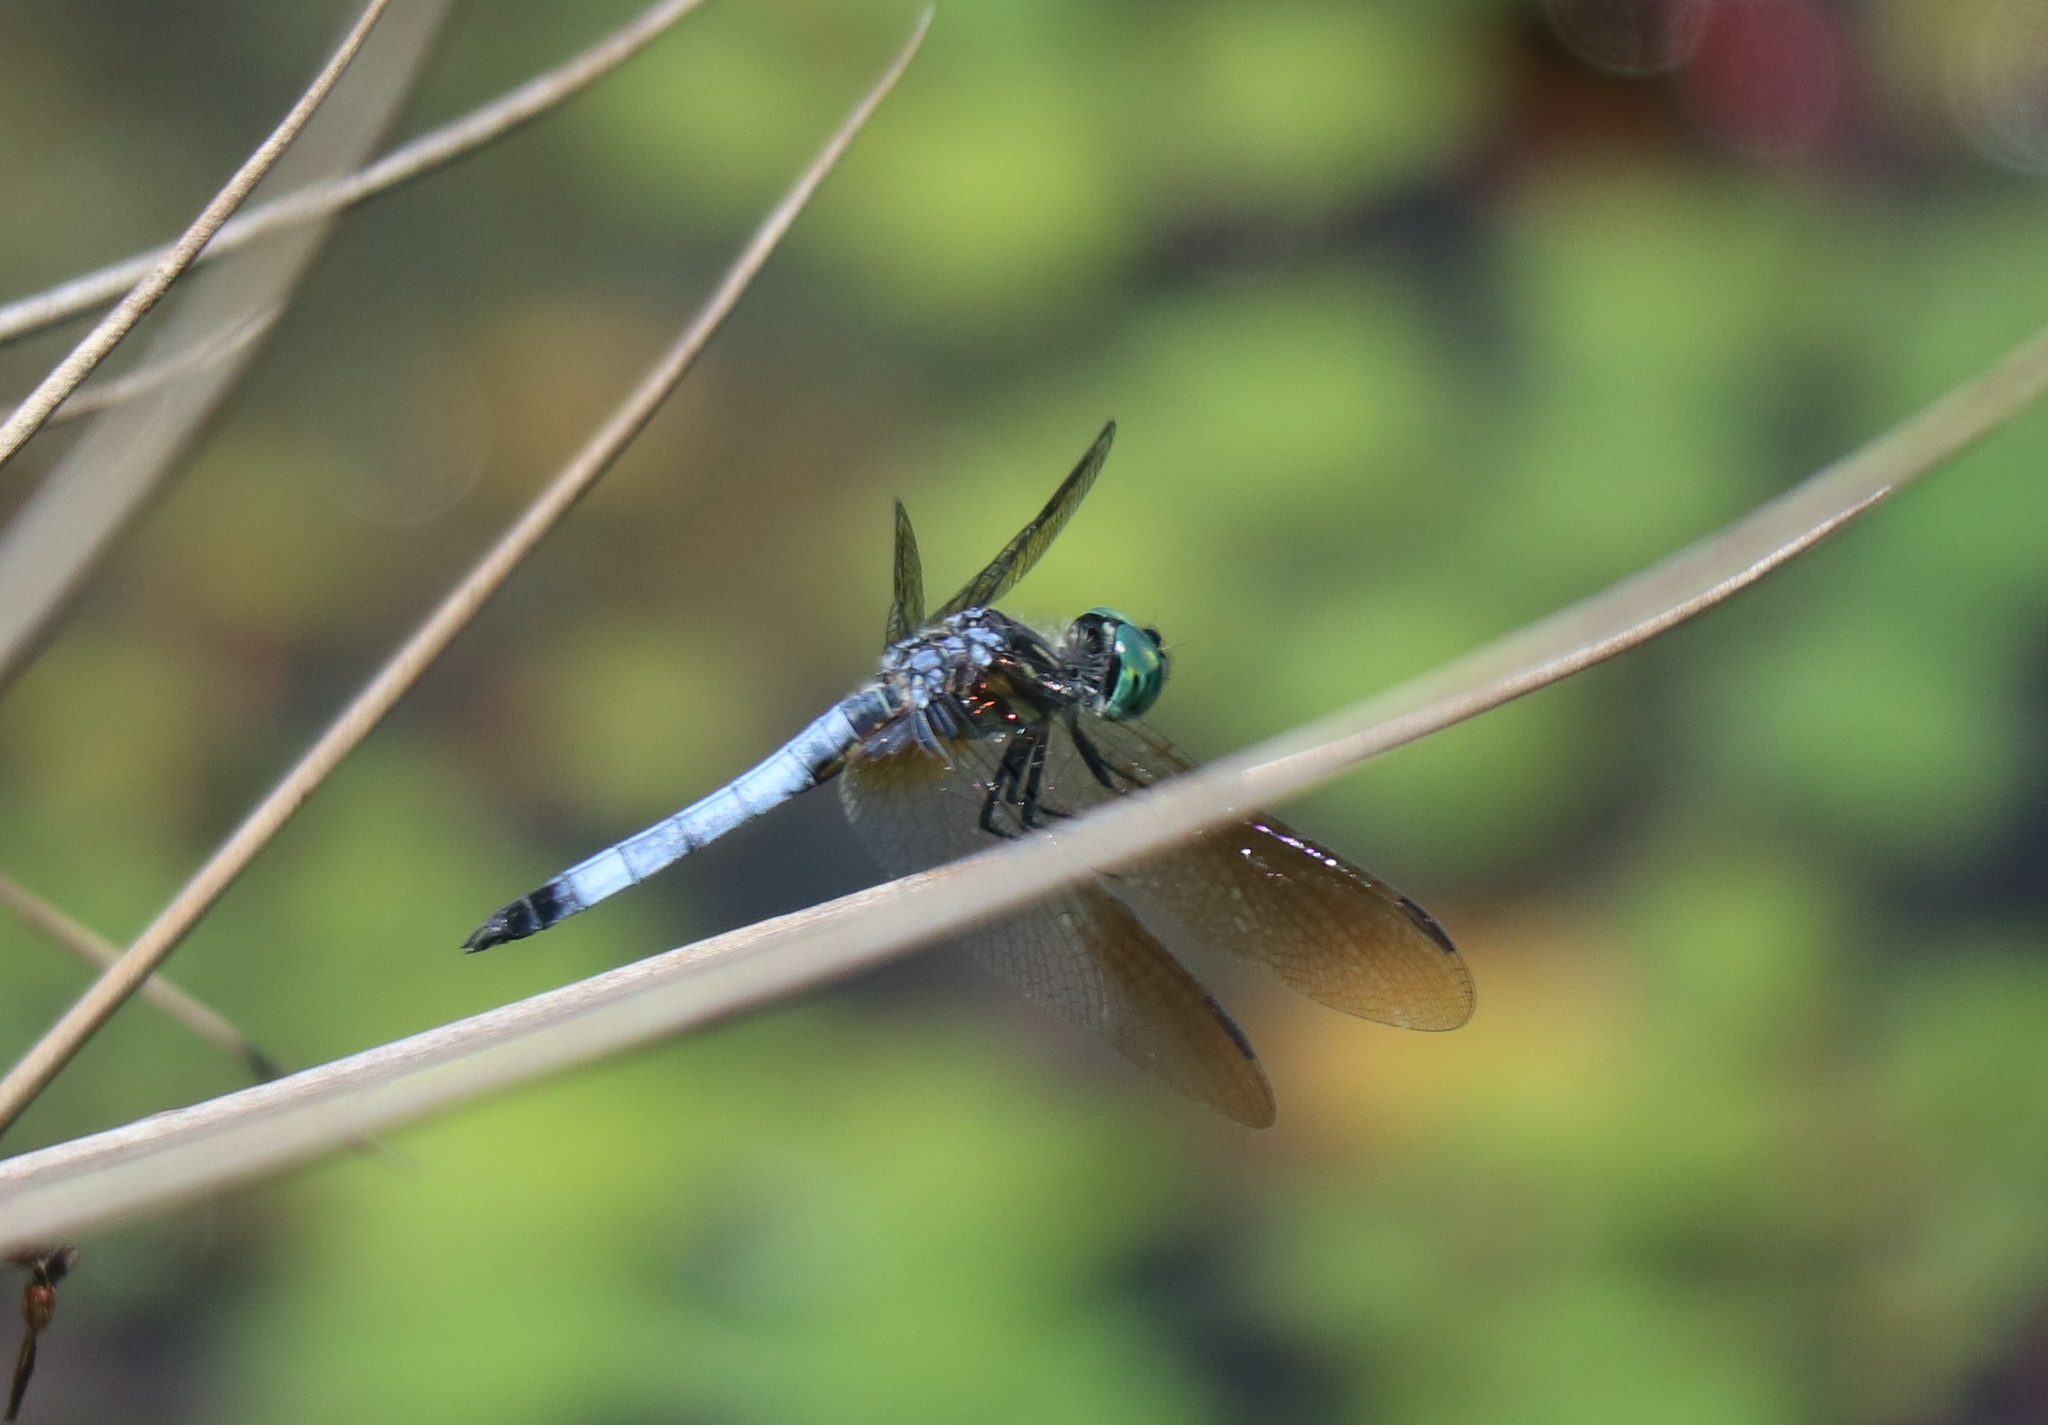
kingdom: Animalia
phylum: Arthropoda
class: Insecta
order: Odonata
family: Libellulidae
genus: Pachydiplax
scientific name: Pachydiplax longipennis
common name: Blue dasher
